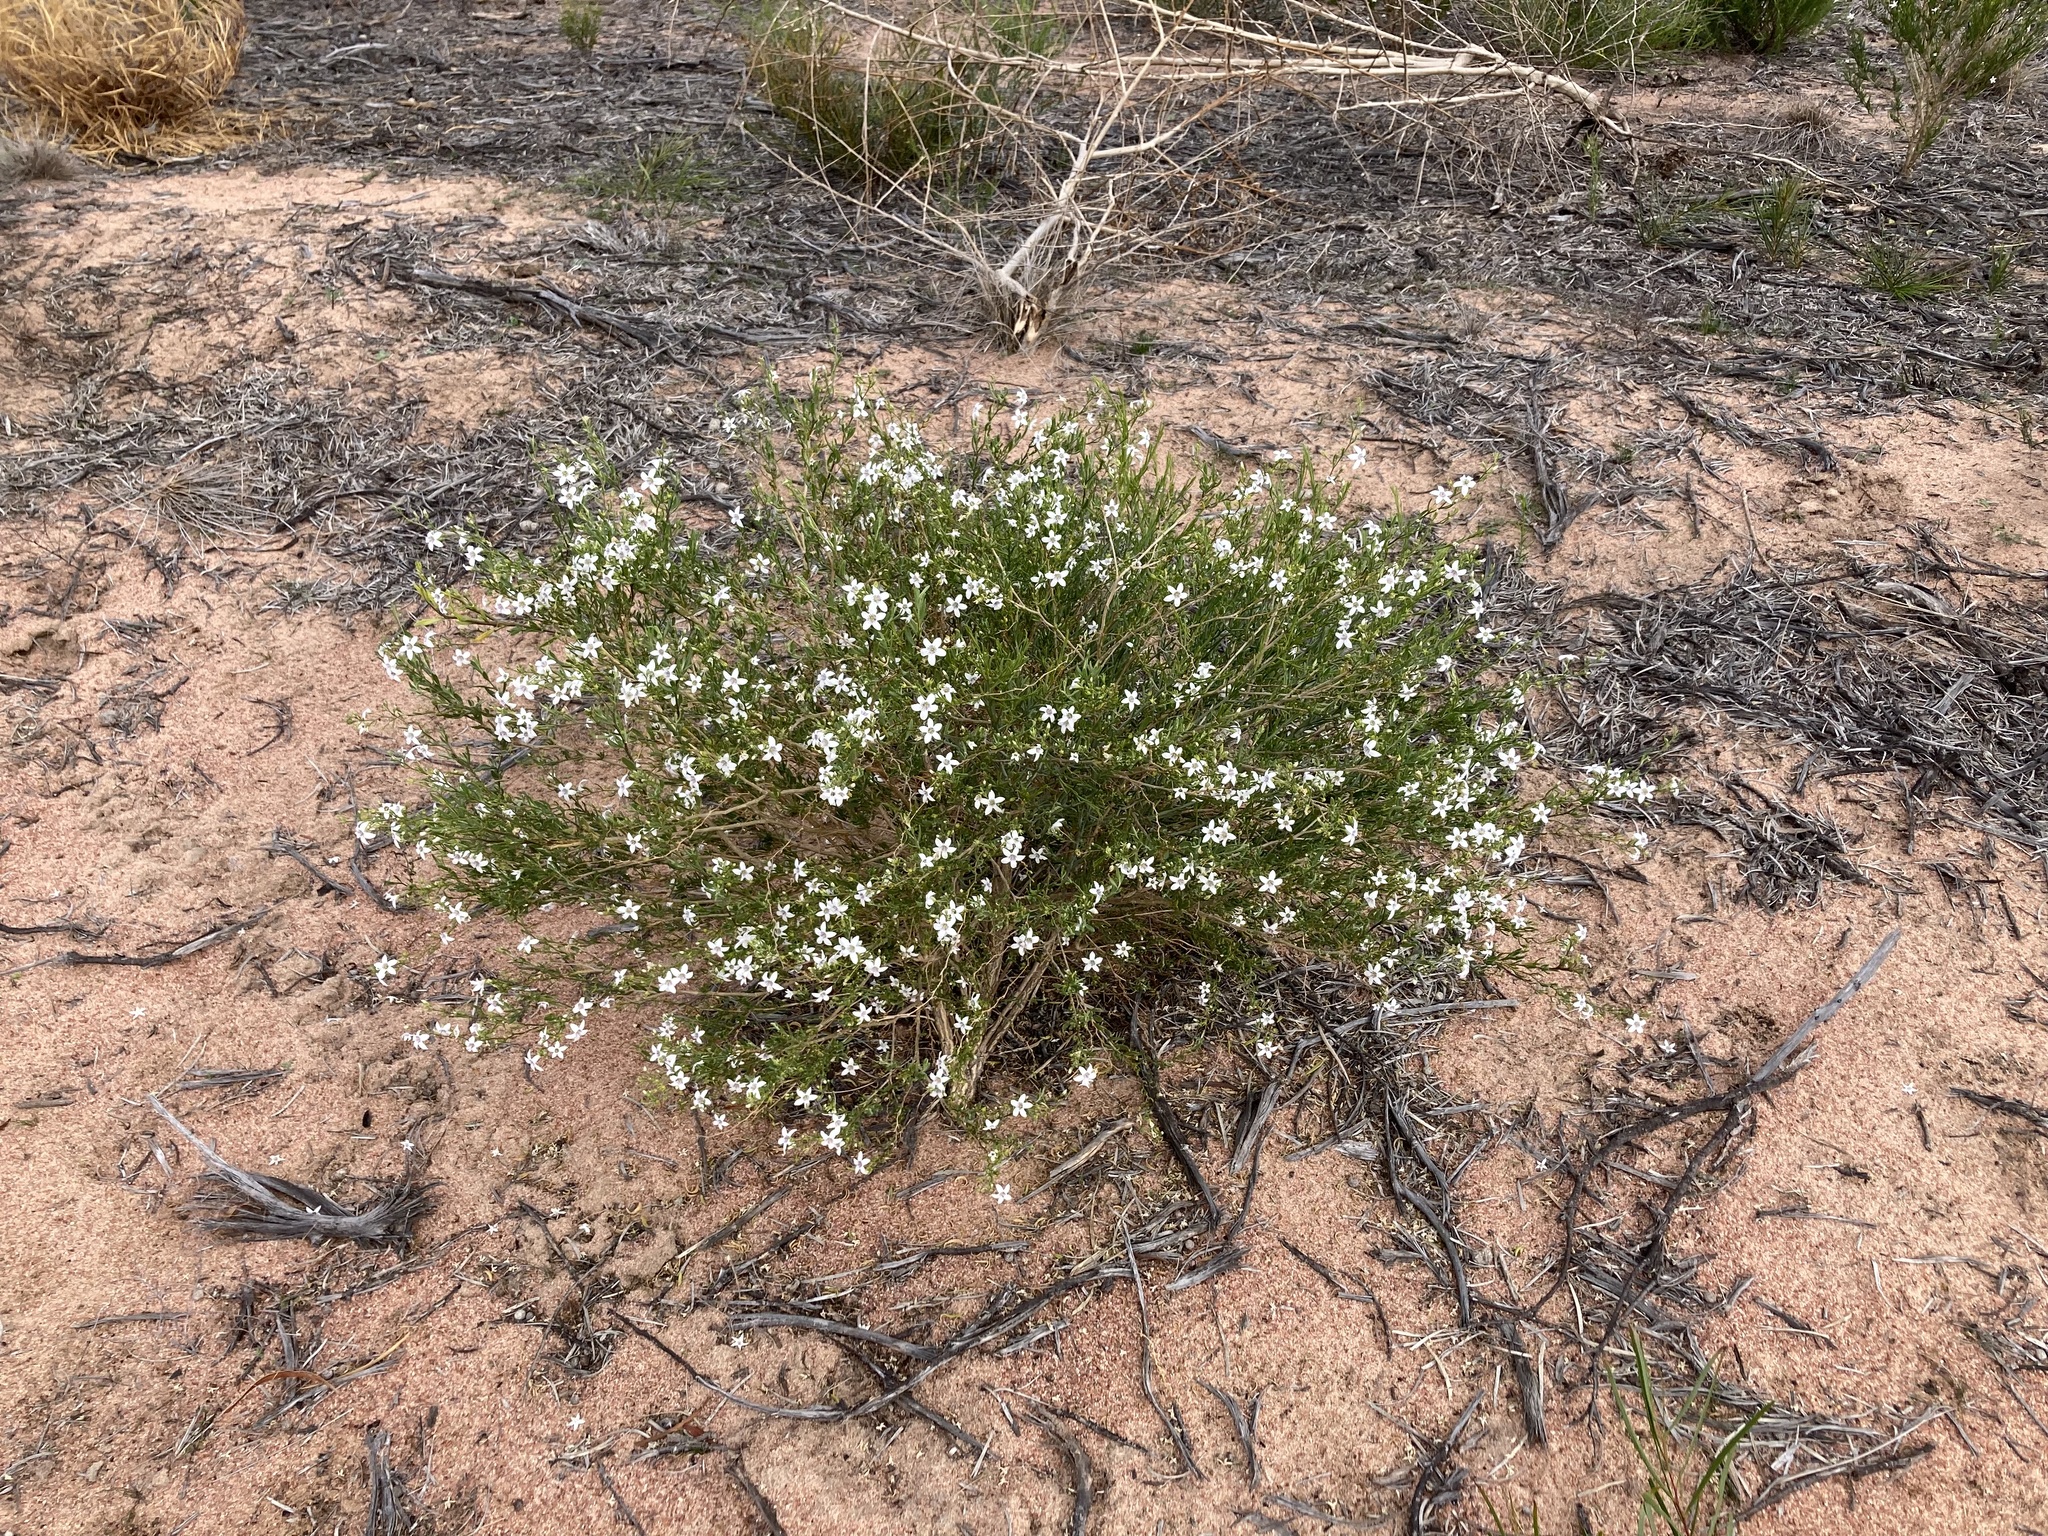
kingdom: Plantae
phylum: Tracheophyta
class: Magnoliopsida
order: Solanales
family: Solanaceae
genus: Cyphanthera
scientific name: Cyphanthera racemosa
